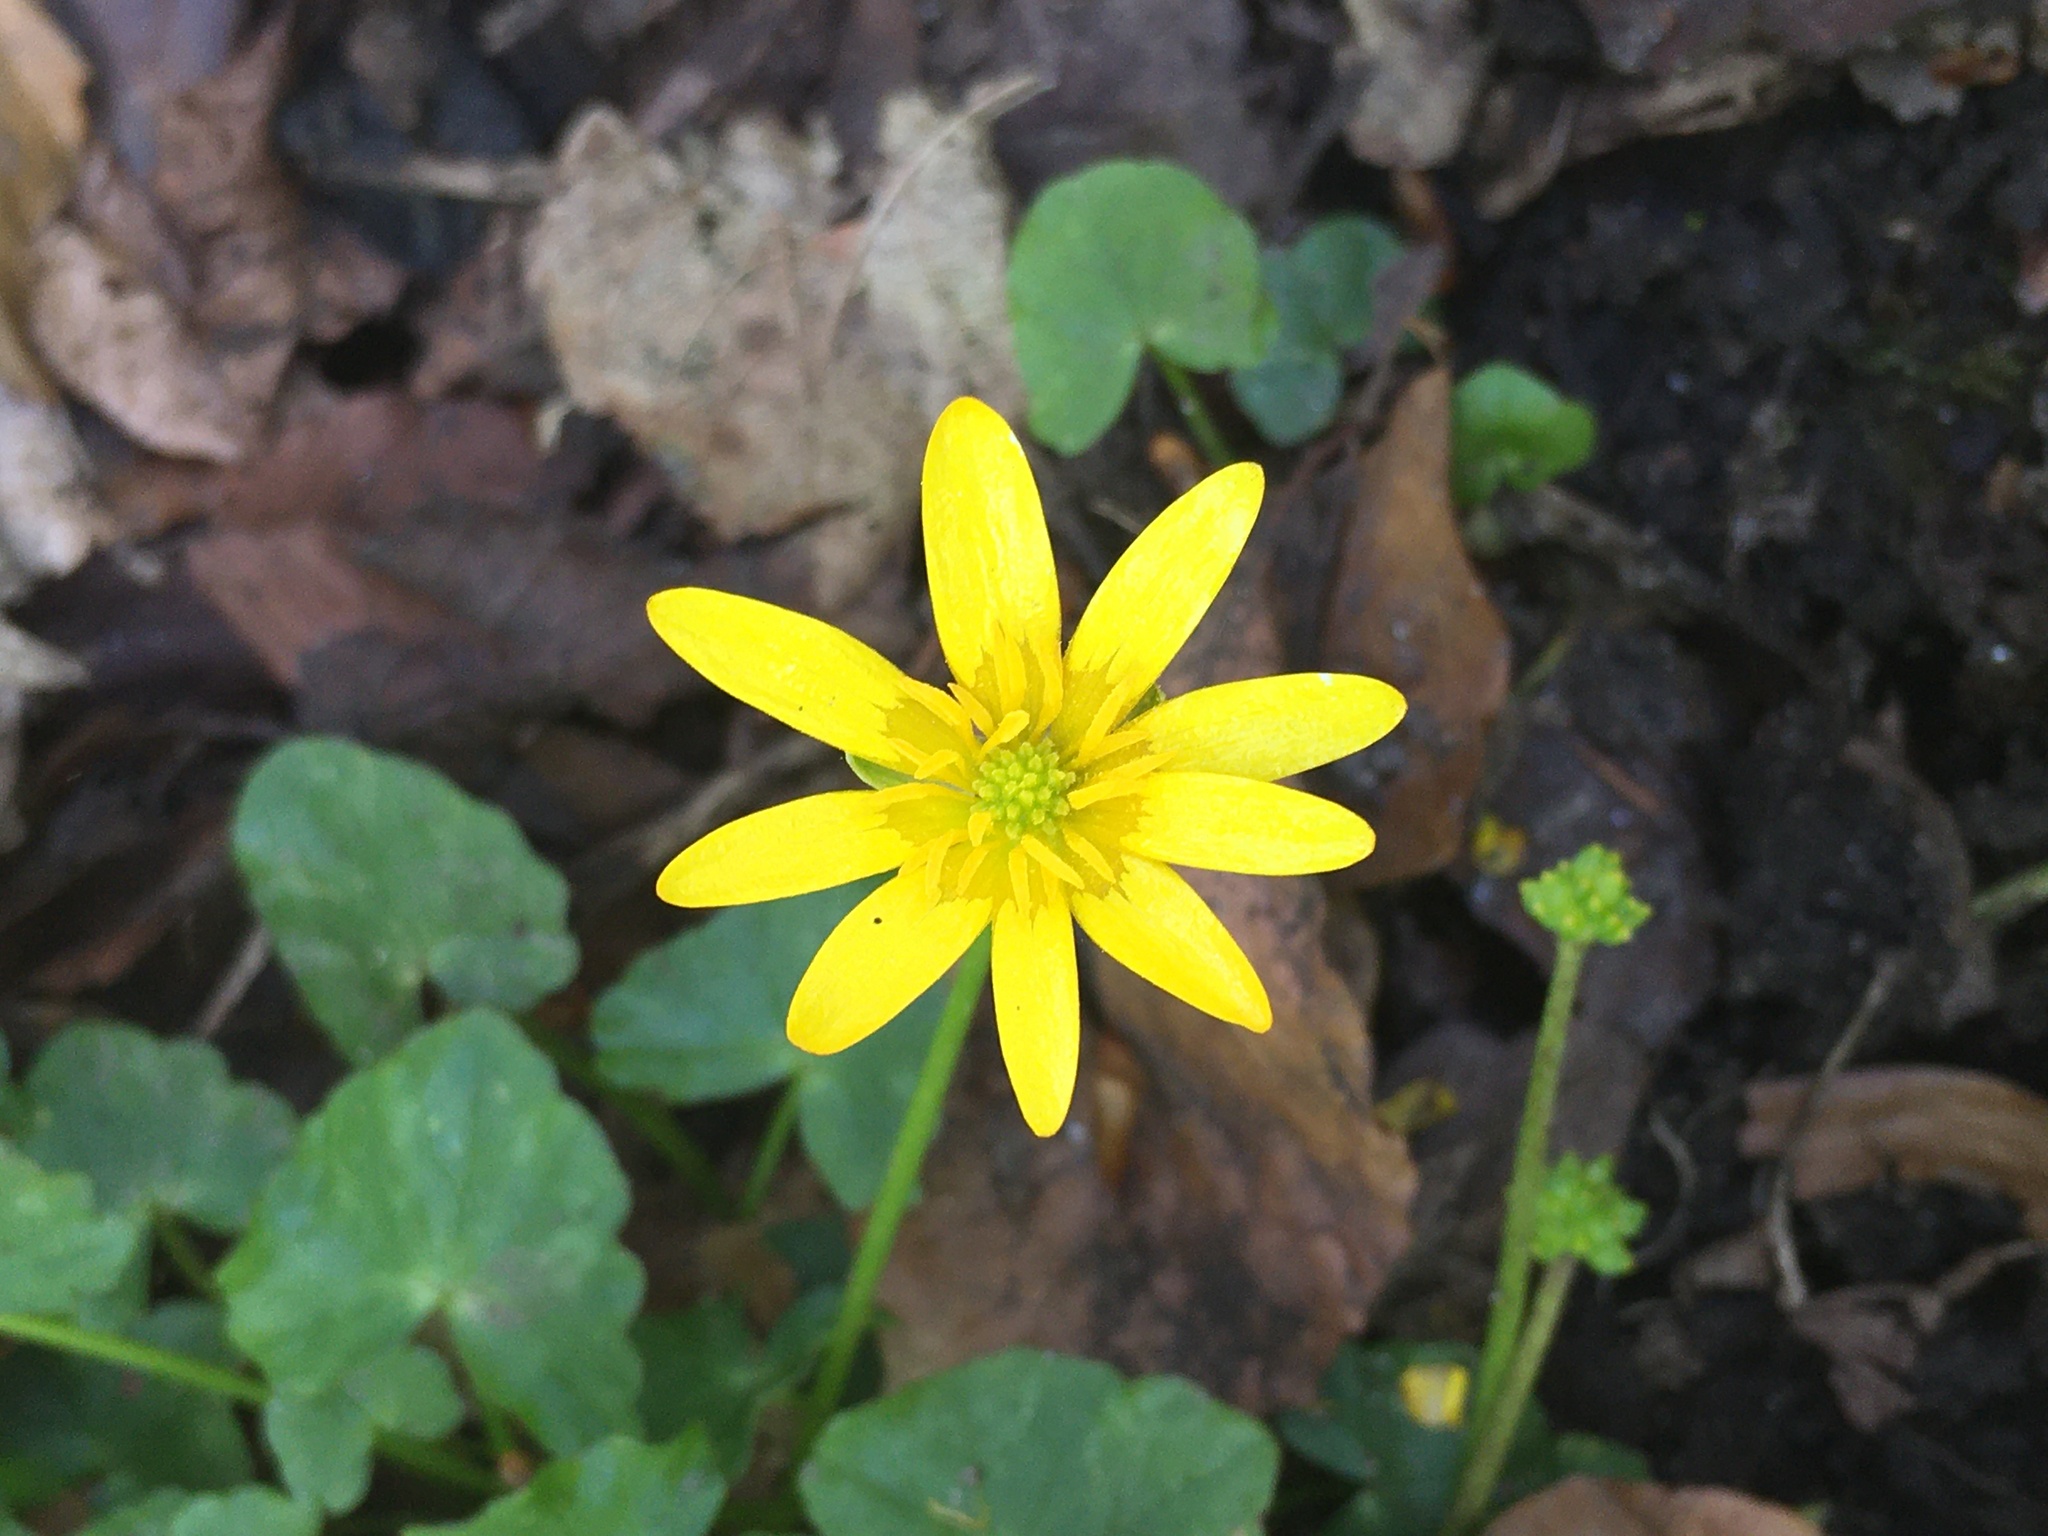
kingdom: Plantae
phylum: Tracheophyta
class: Magnoliopsida
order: Ranunculales
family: Ranunculaceae
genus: Ficaria
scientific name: Ficaria verna
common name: Lesser celandine
